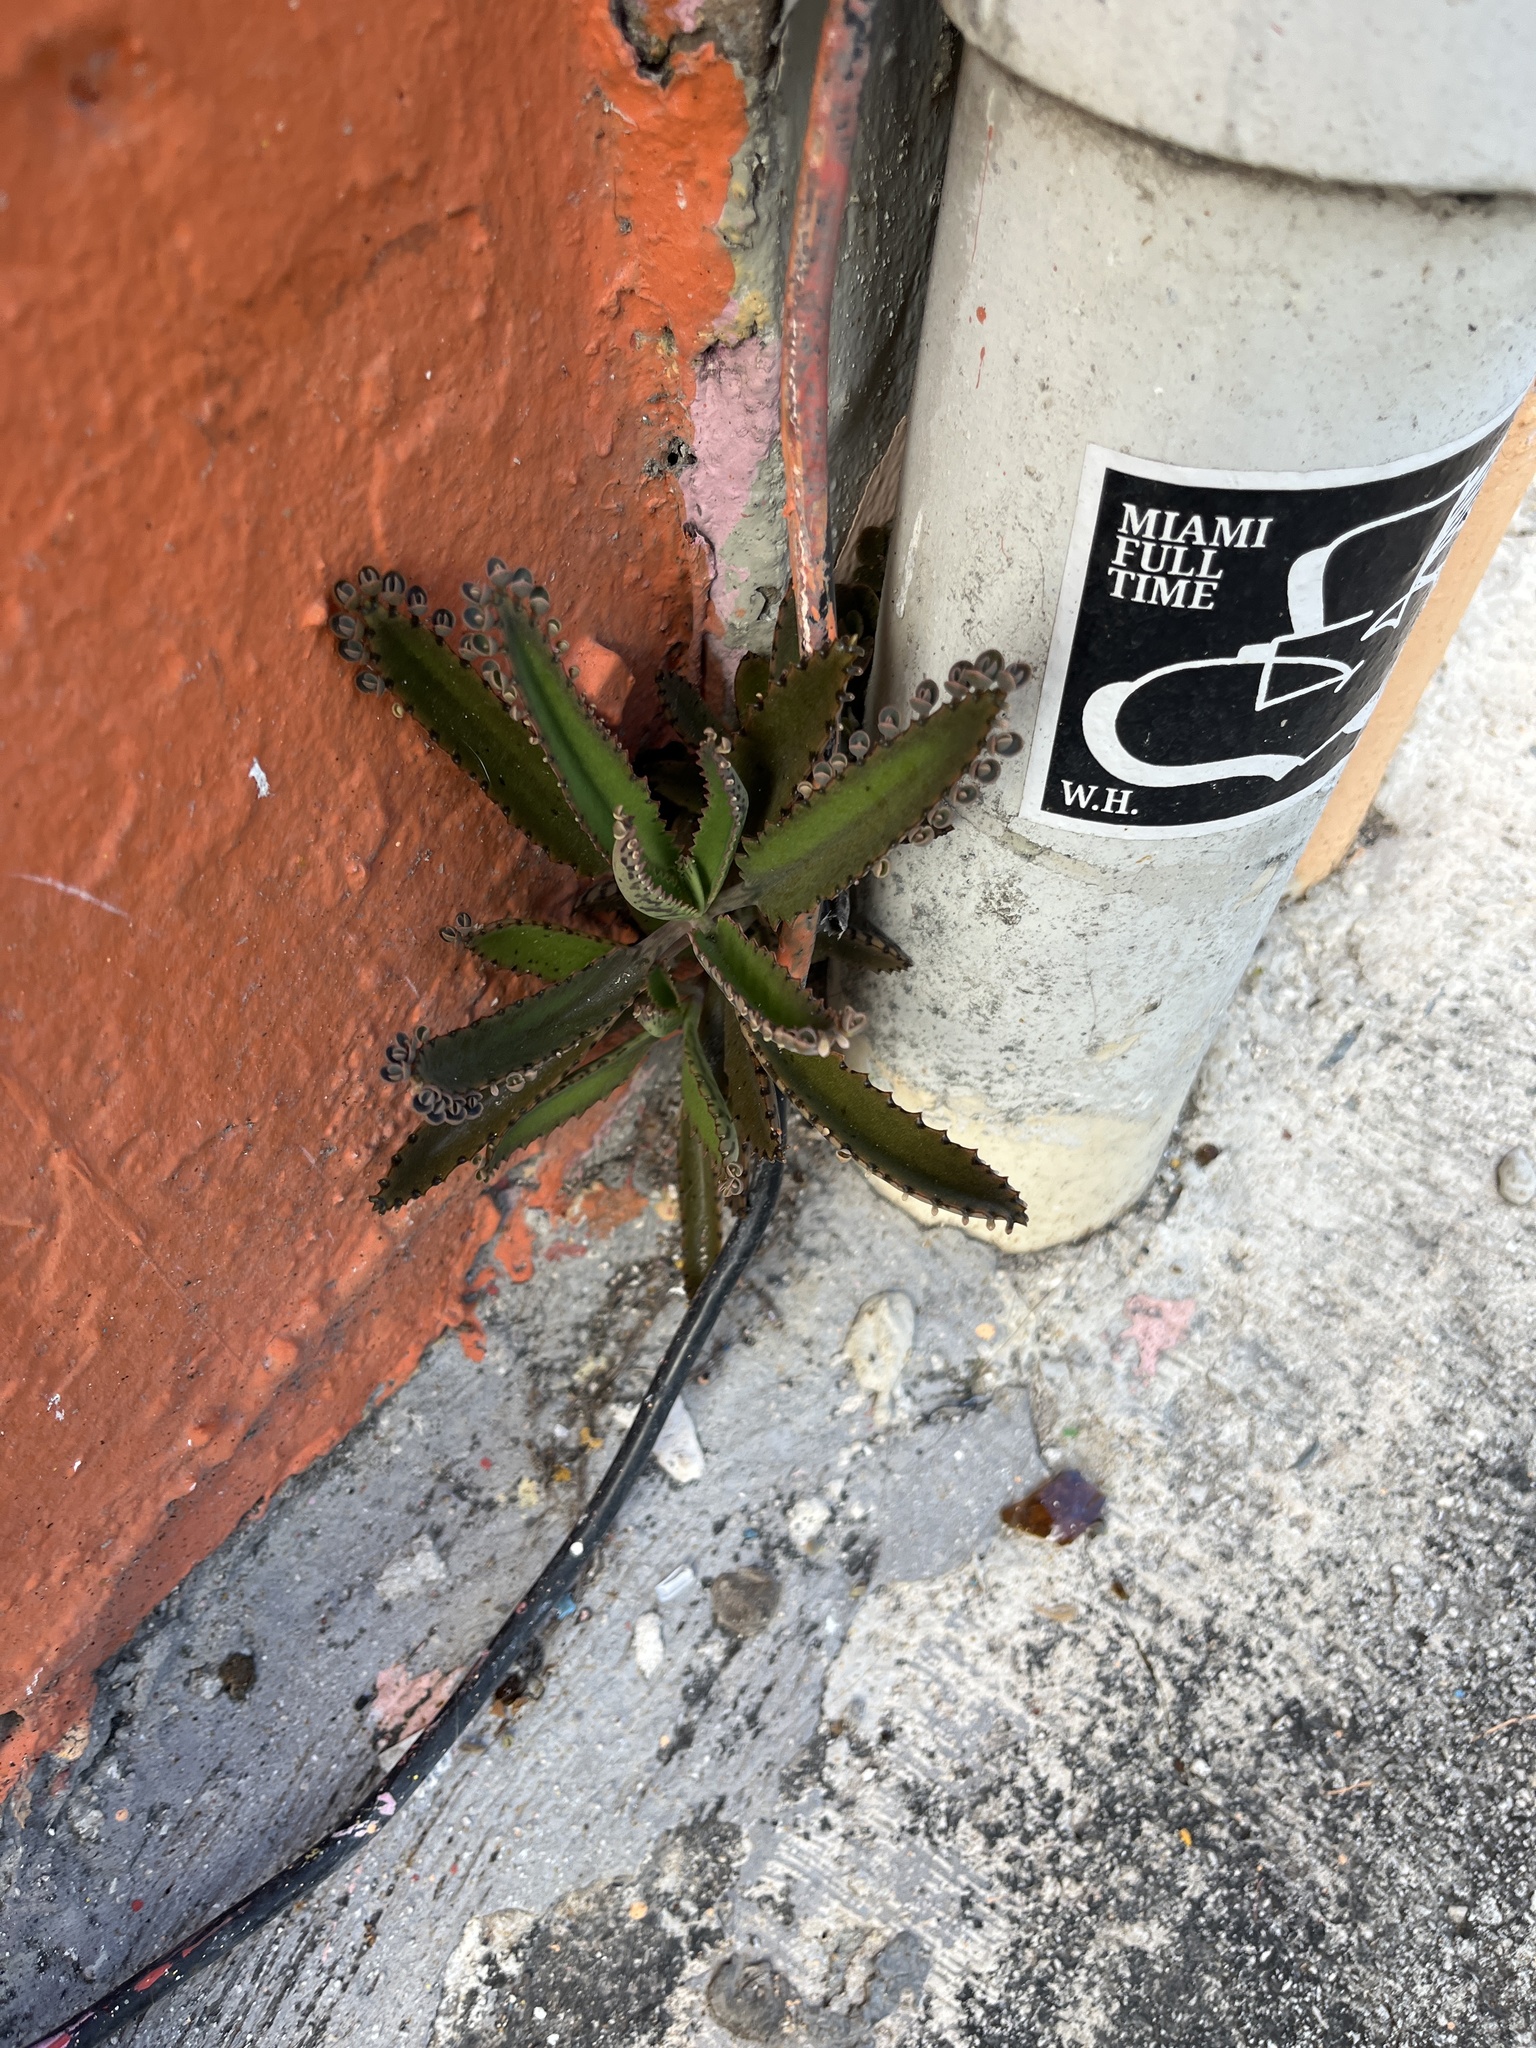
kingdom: Plantae
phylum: Tracheophyta
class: Magnoliopsida
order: Saxifragales
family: Crassulaceae
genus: Kalanchoe
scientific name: Kalanchoe houghtonii
